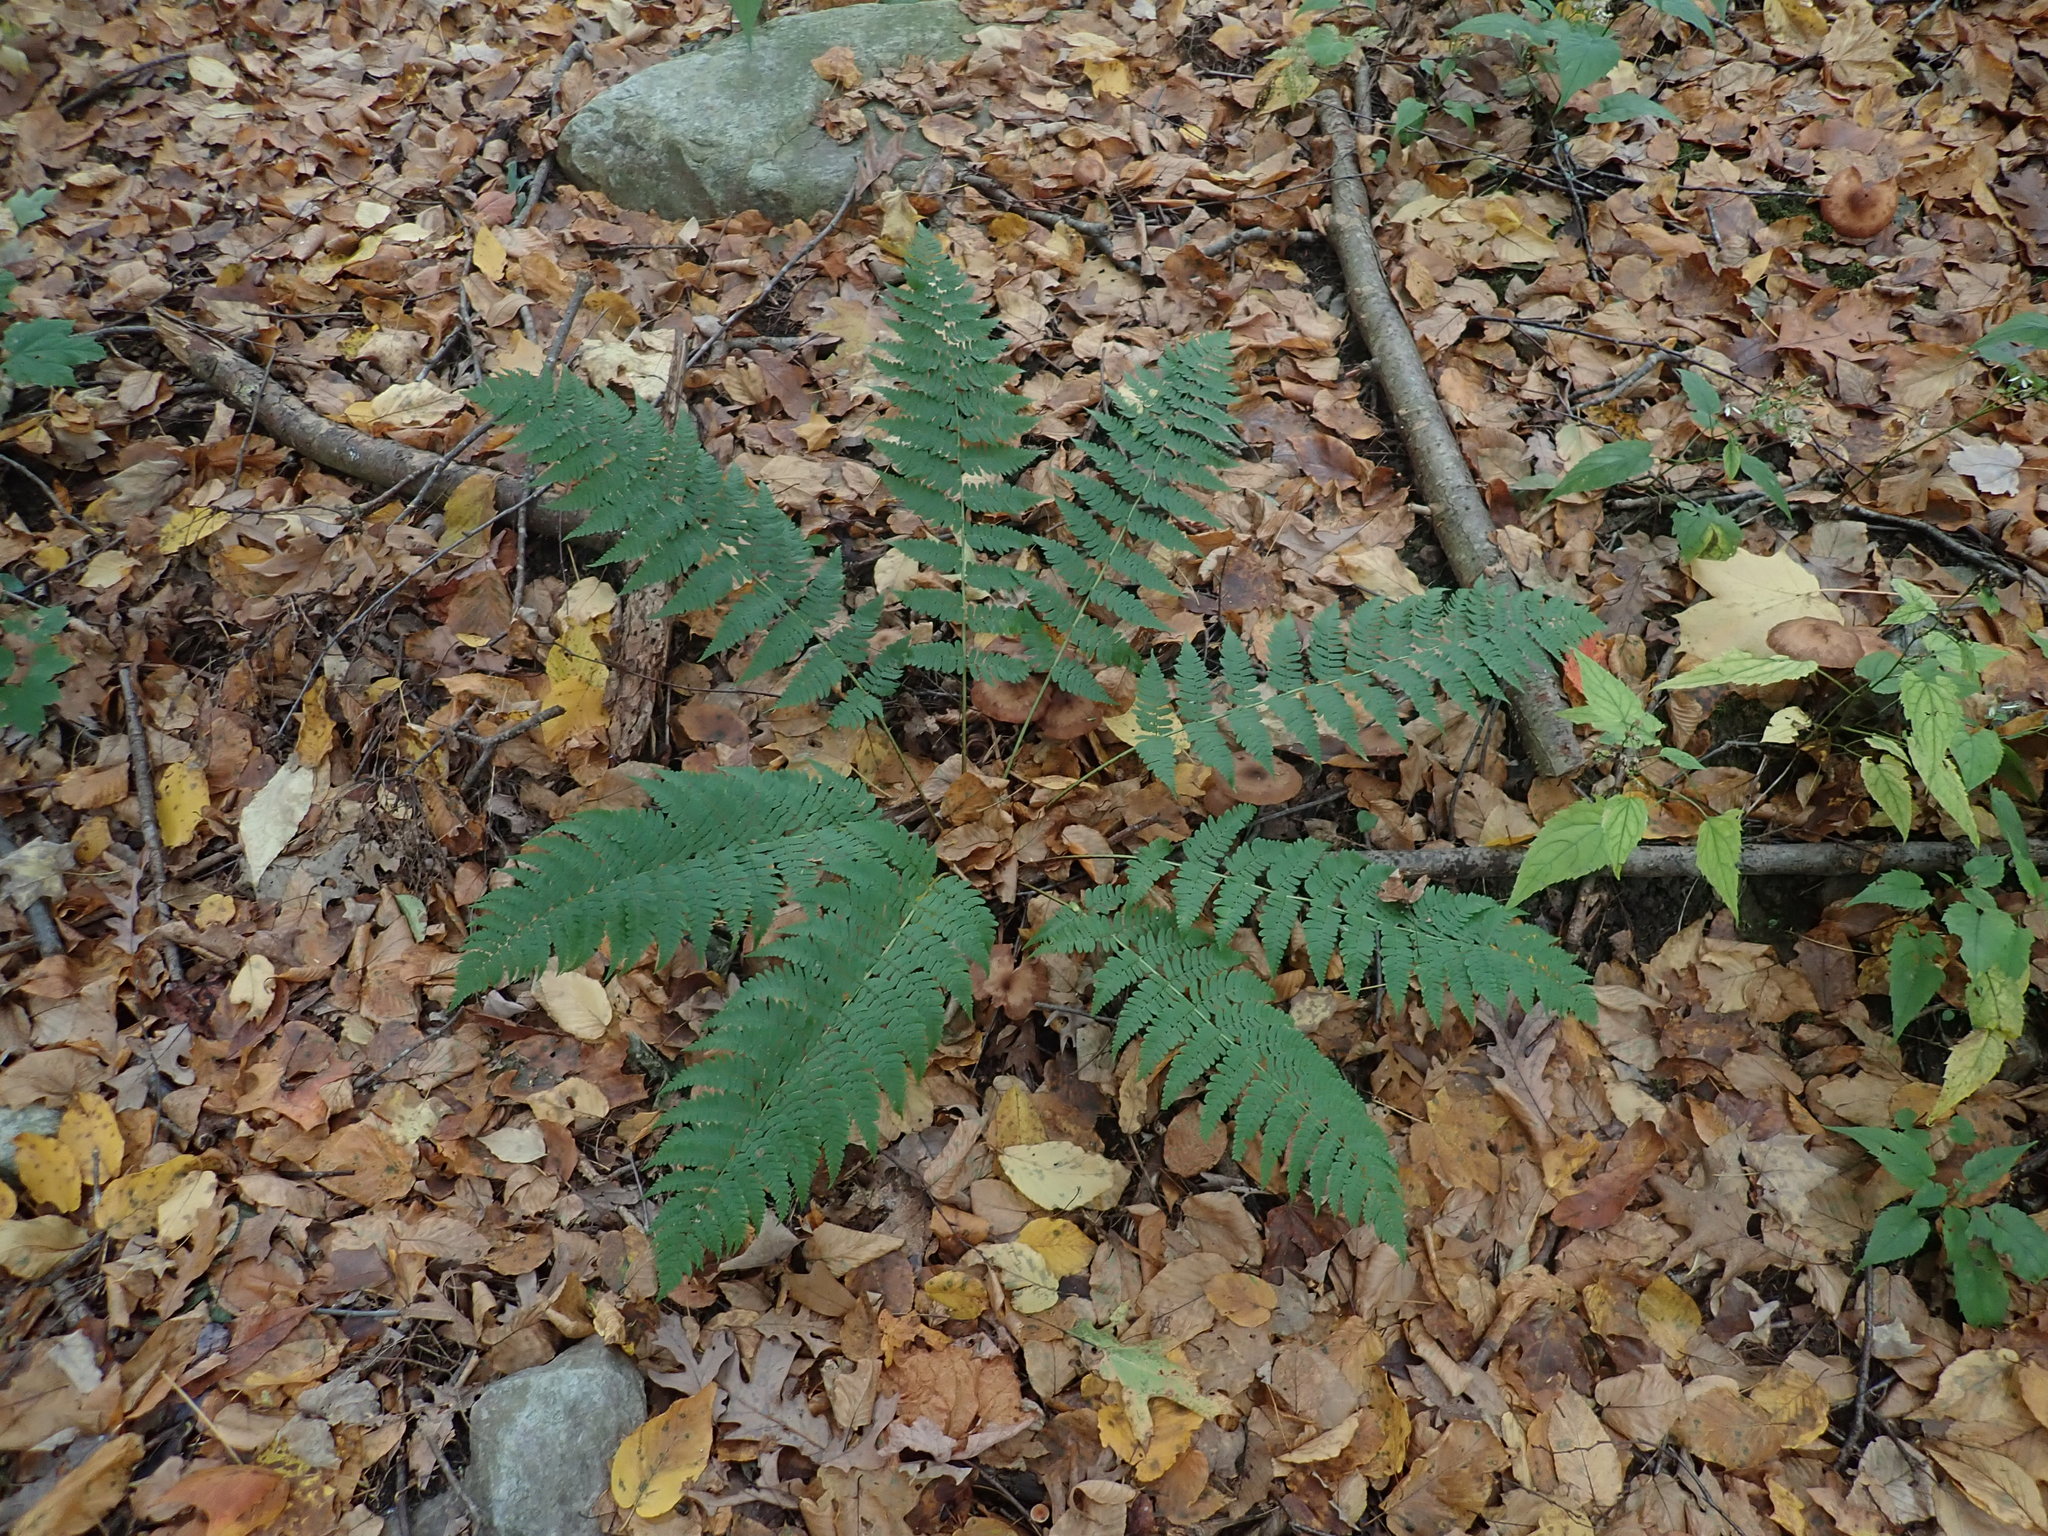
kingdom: Plantae
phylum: Tracheophyta
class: Polypodiopsida
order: Polypodiales
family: Dryopteridaceae
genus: Dryopteris
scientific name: Dryopteris marginalis
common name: Marginal wood fern
